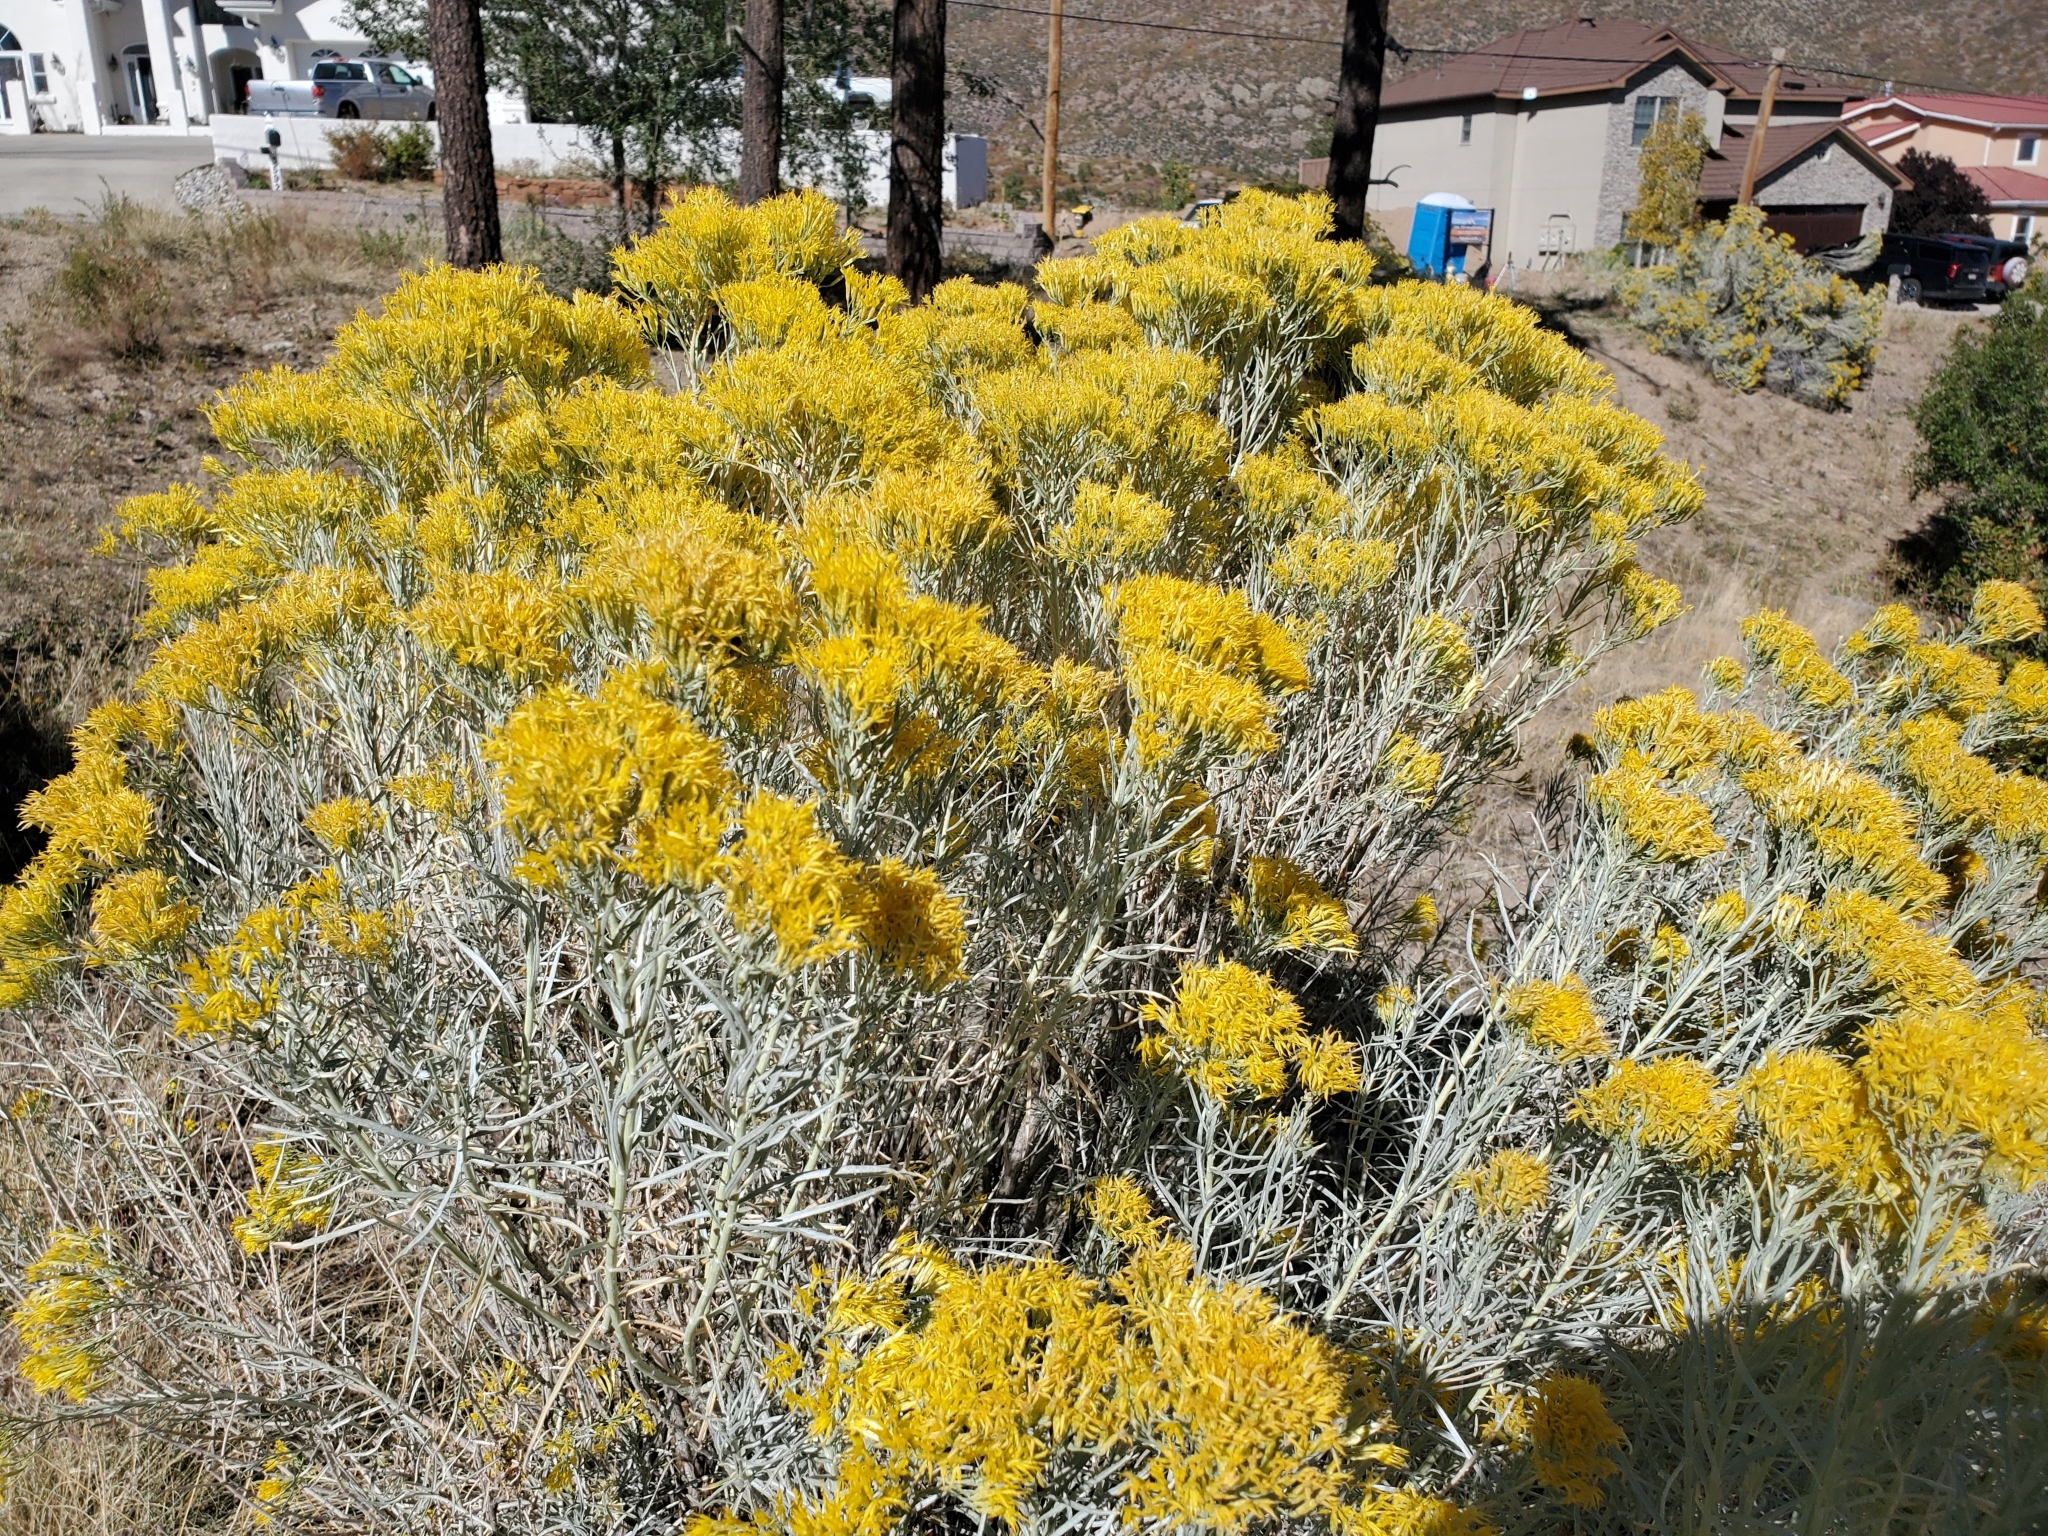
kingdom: Plantae
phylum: Tracheophyta
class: Magnoliopsida
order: Asterales
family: Asteraceae
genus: Ericameria
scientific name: Ericameria nauseosa
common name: Rubber rabbitbrush
